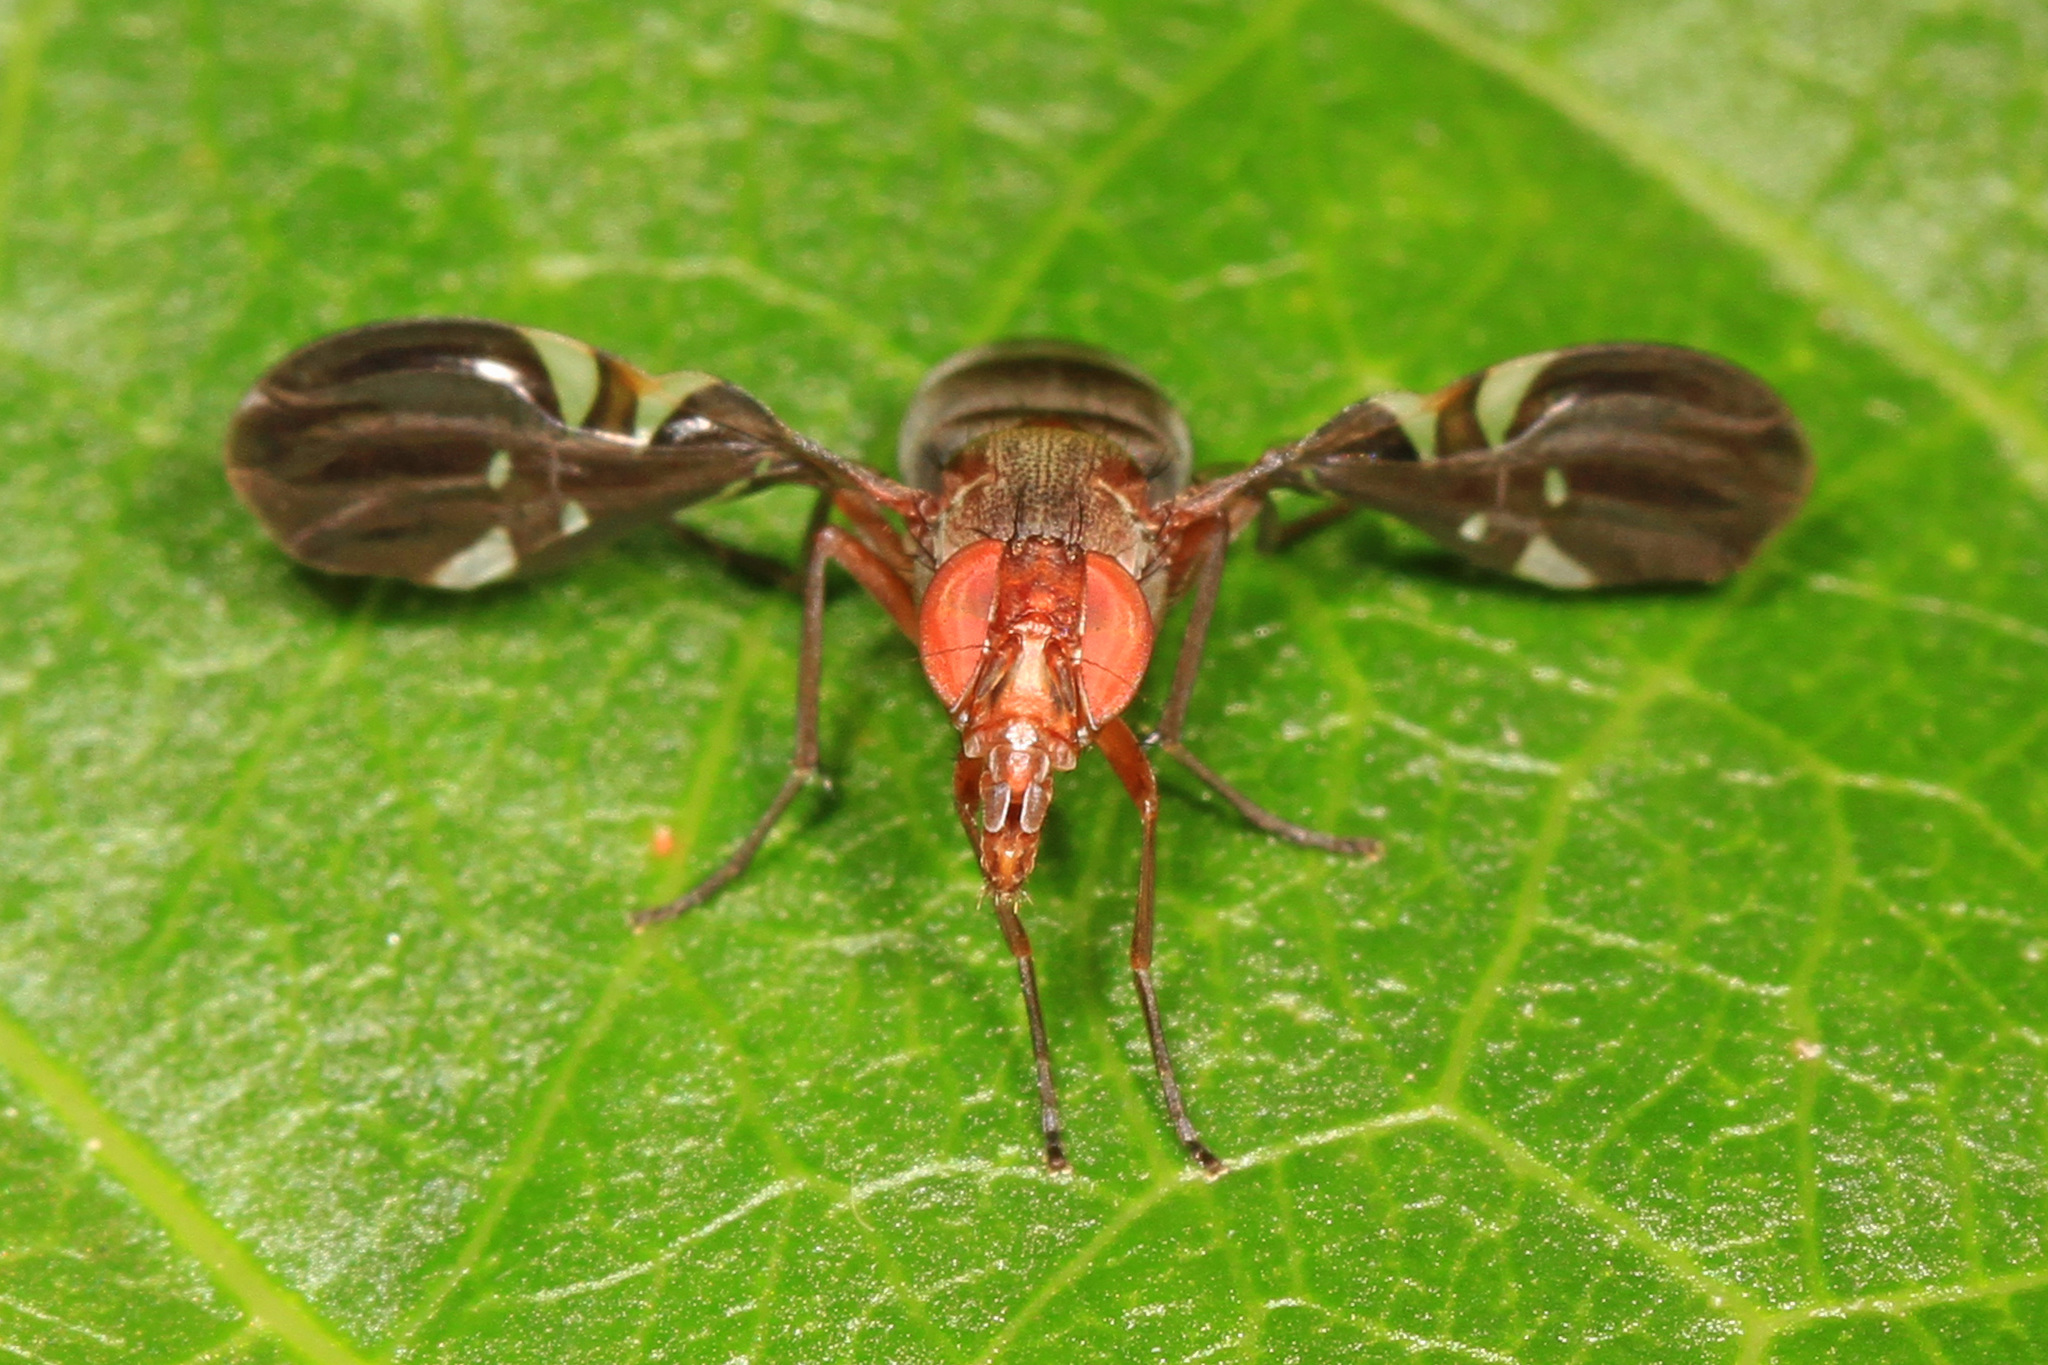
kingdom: Animalia
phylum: Arthropoda
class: Insecta
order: Diptera
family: Ulidiidae
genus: Delphinia
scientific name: Delphinia picta
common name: Common picture-winged fly
